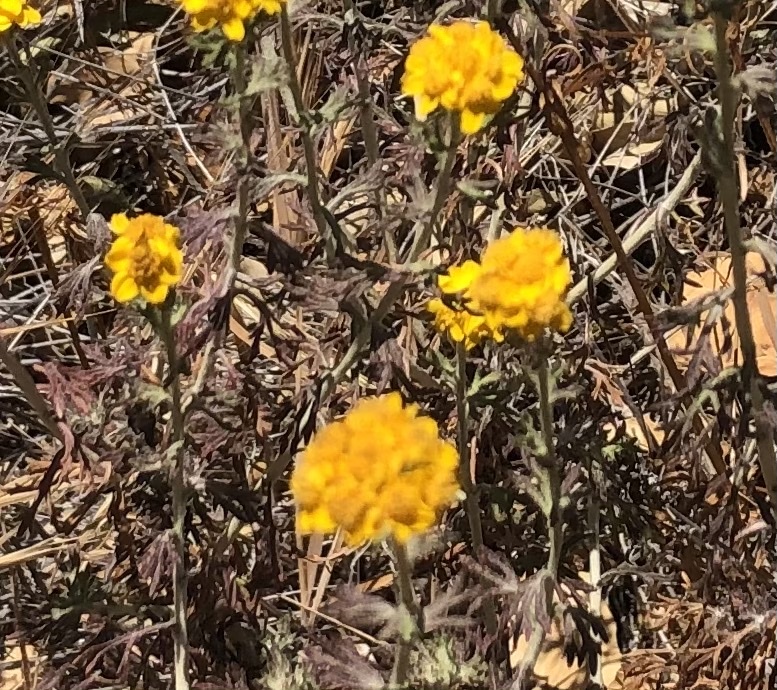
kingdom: Plantae
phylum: Tracheophyta
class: Magnoliopsida
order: Asterales
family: Asteraceae
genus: Eriophyllum
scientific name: Eriophyllum confertiflorum
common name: Golden-yarrow
